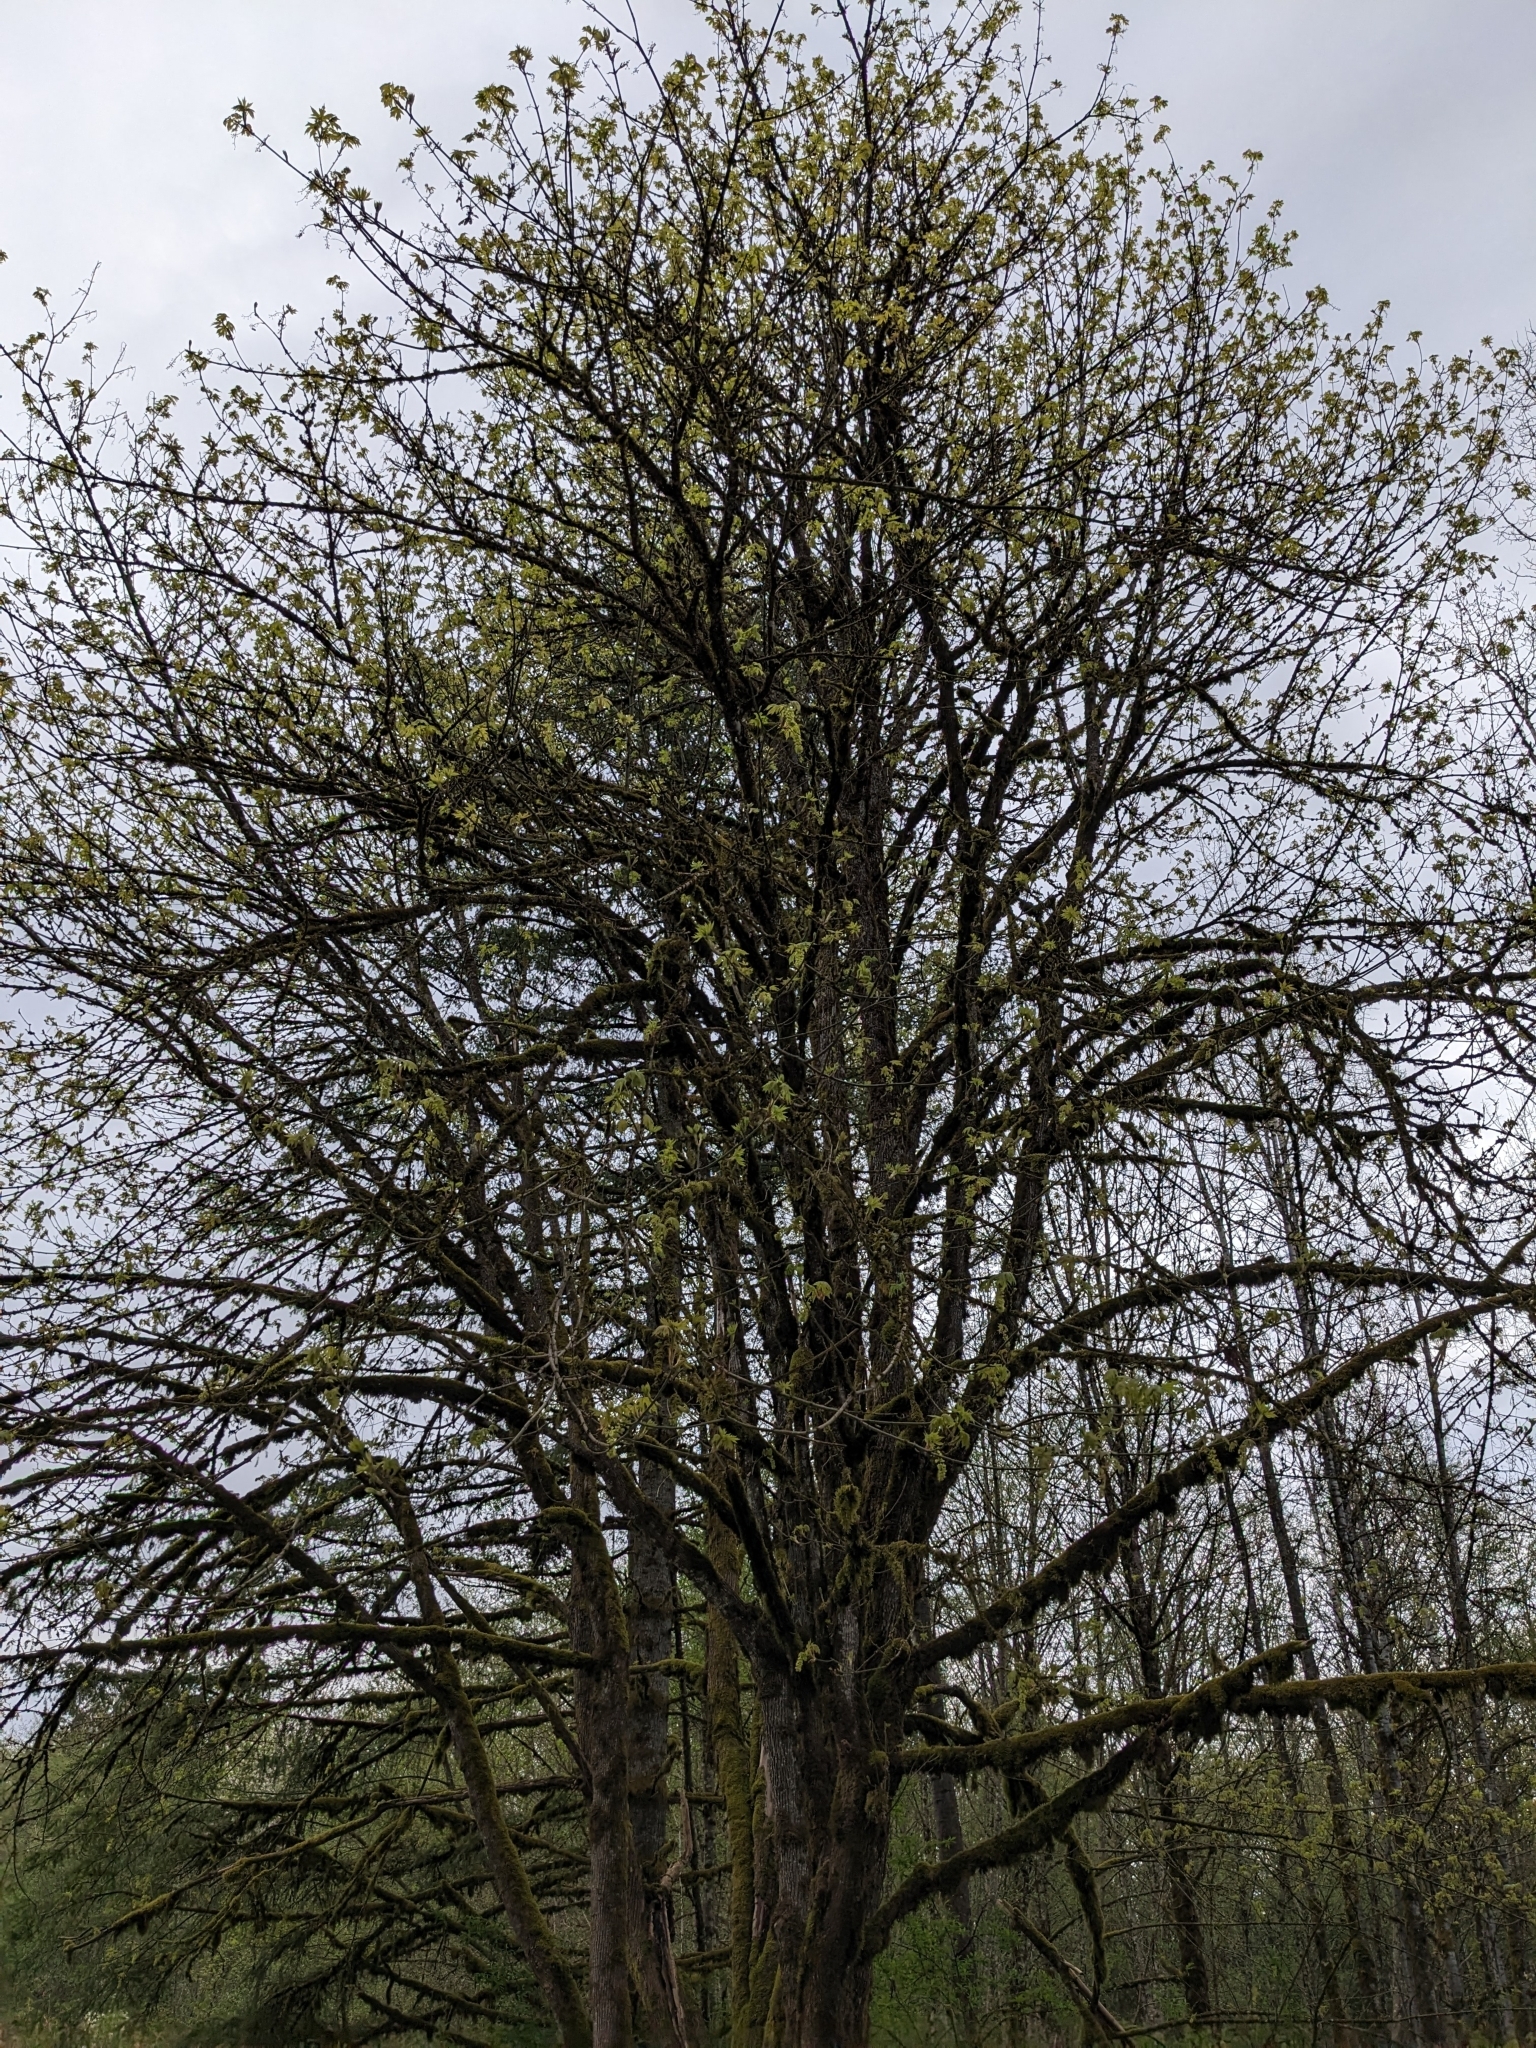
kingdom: Plantae
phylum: Tracheophyta
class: Magnoliopsida
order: Sapindales
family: Sapindaceae
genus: Acer
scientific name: Acer macrophyllum
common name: Oregon maple
